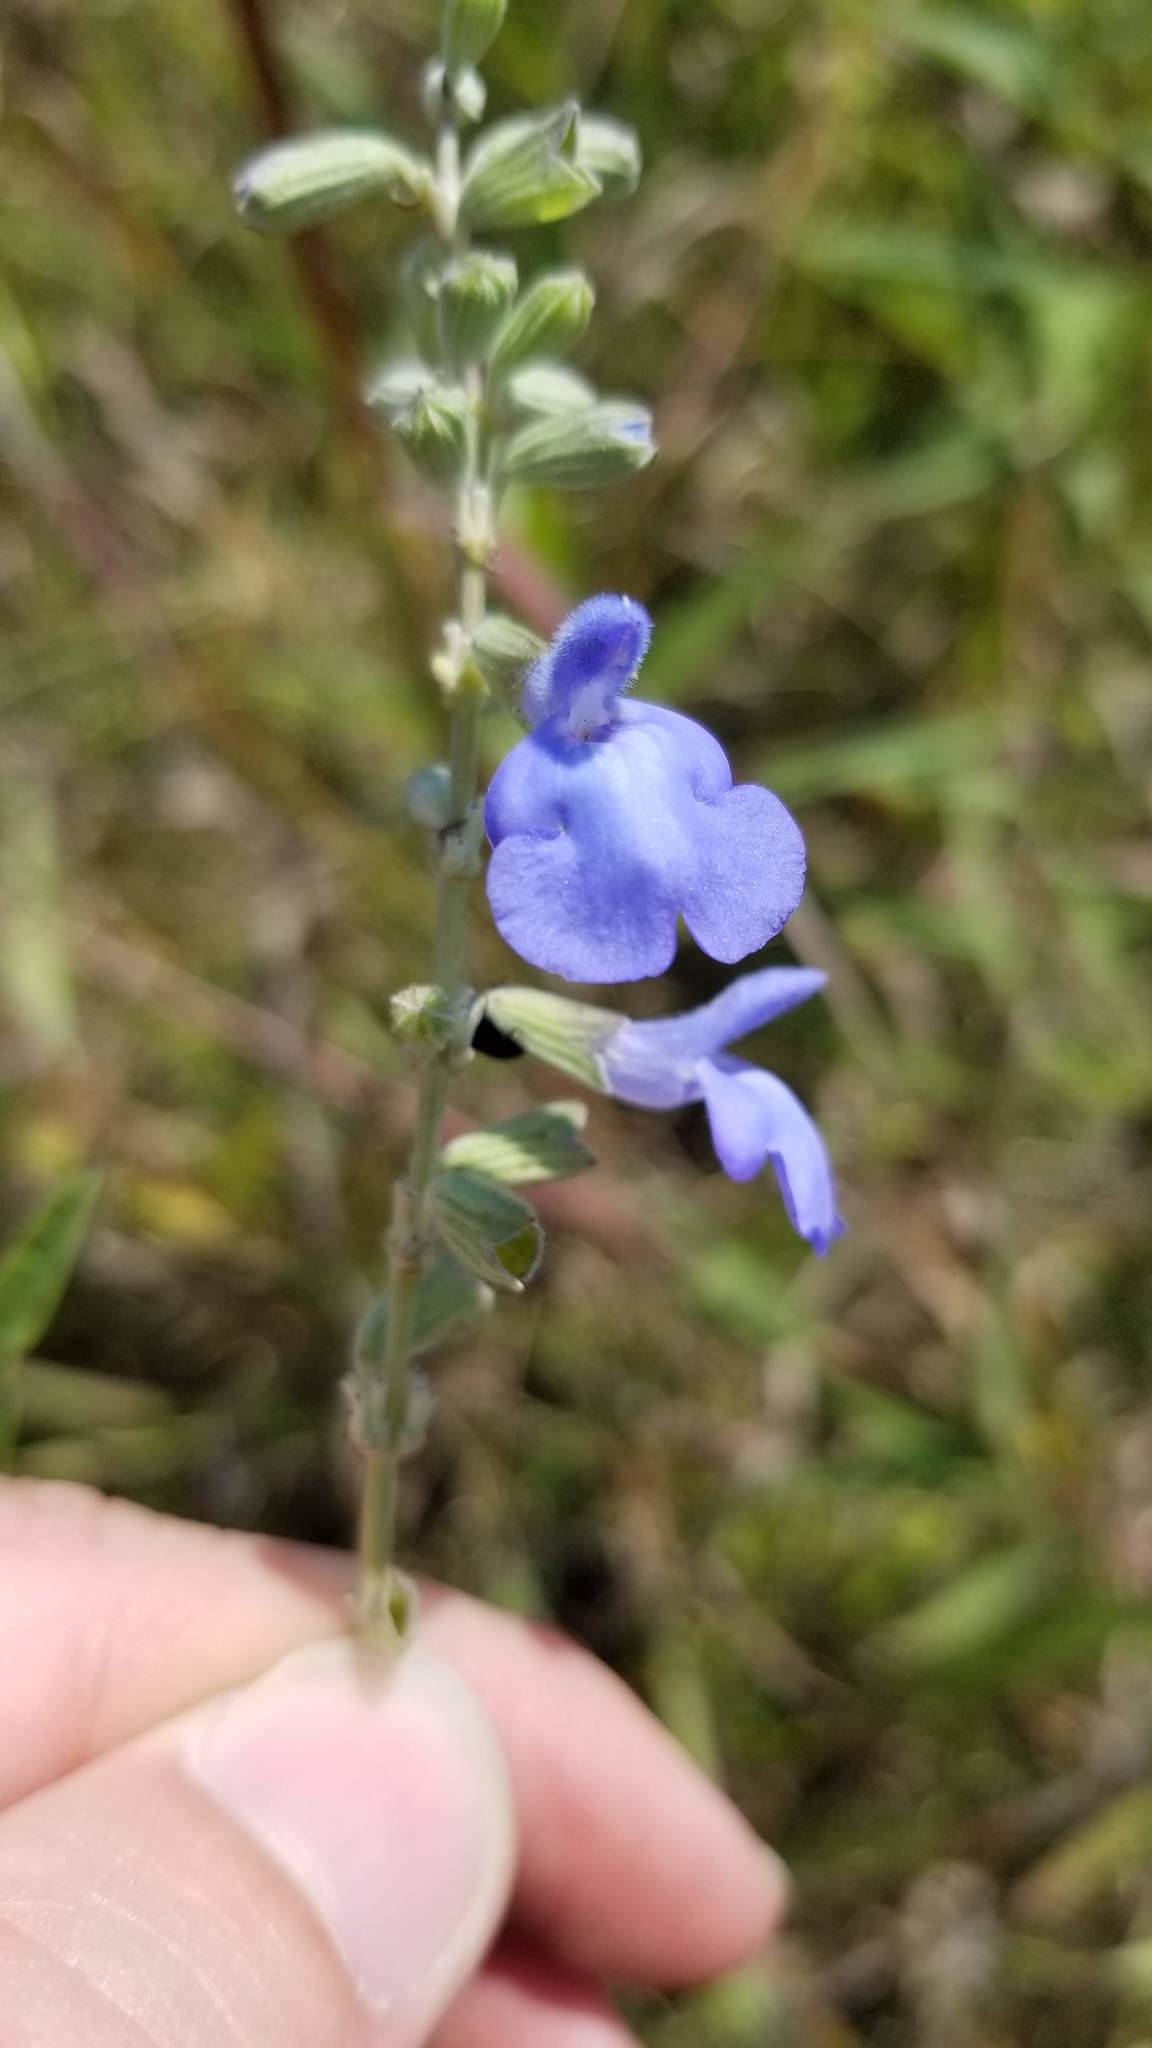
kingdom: Plantae
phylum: Tracheophyta
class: Magnoliopsida
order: Lamiales
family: Lamiaceae
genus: Salvia
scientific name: Salvia azurea
